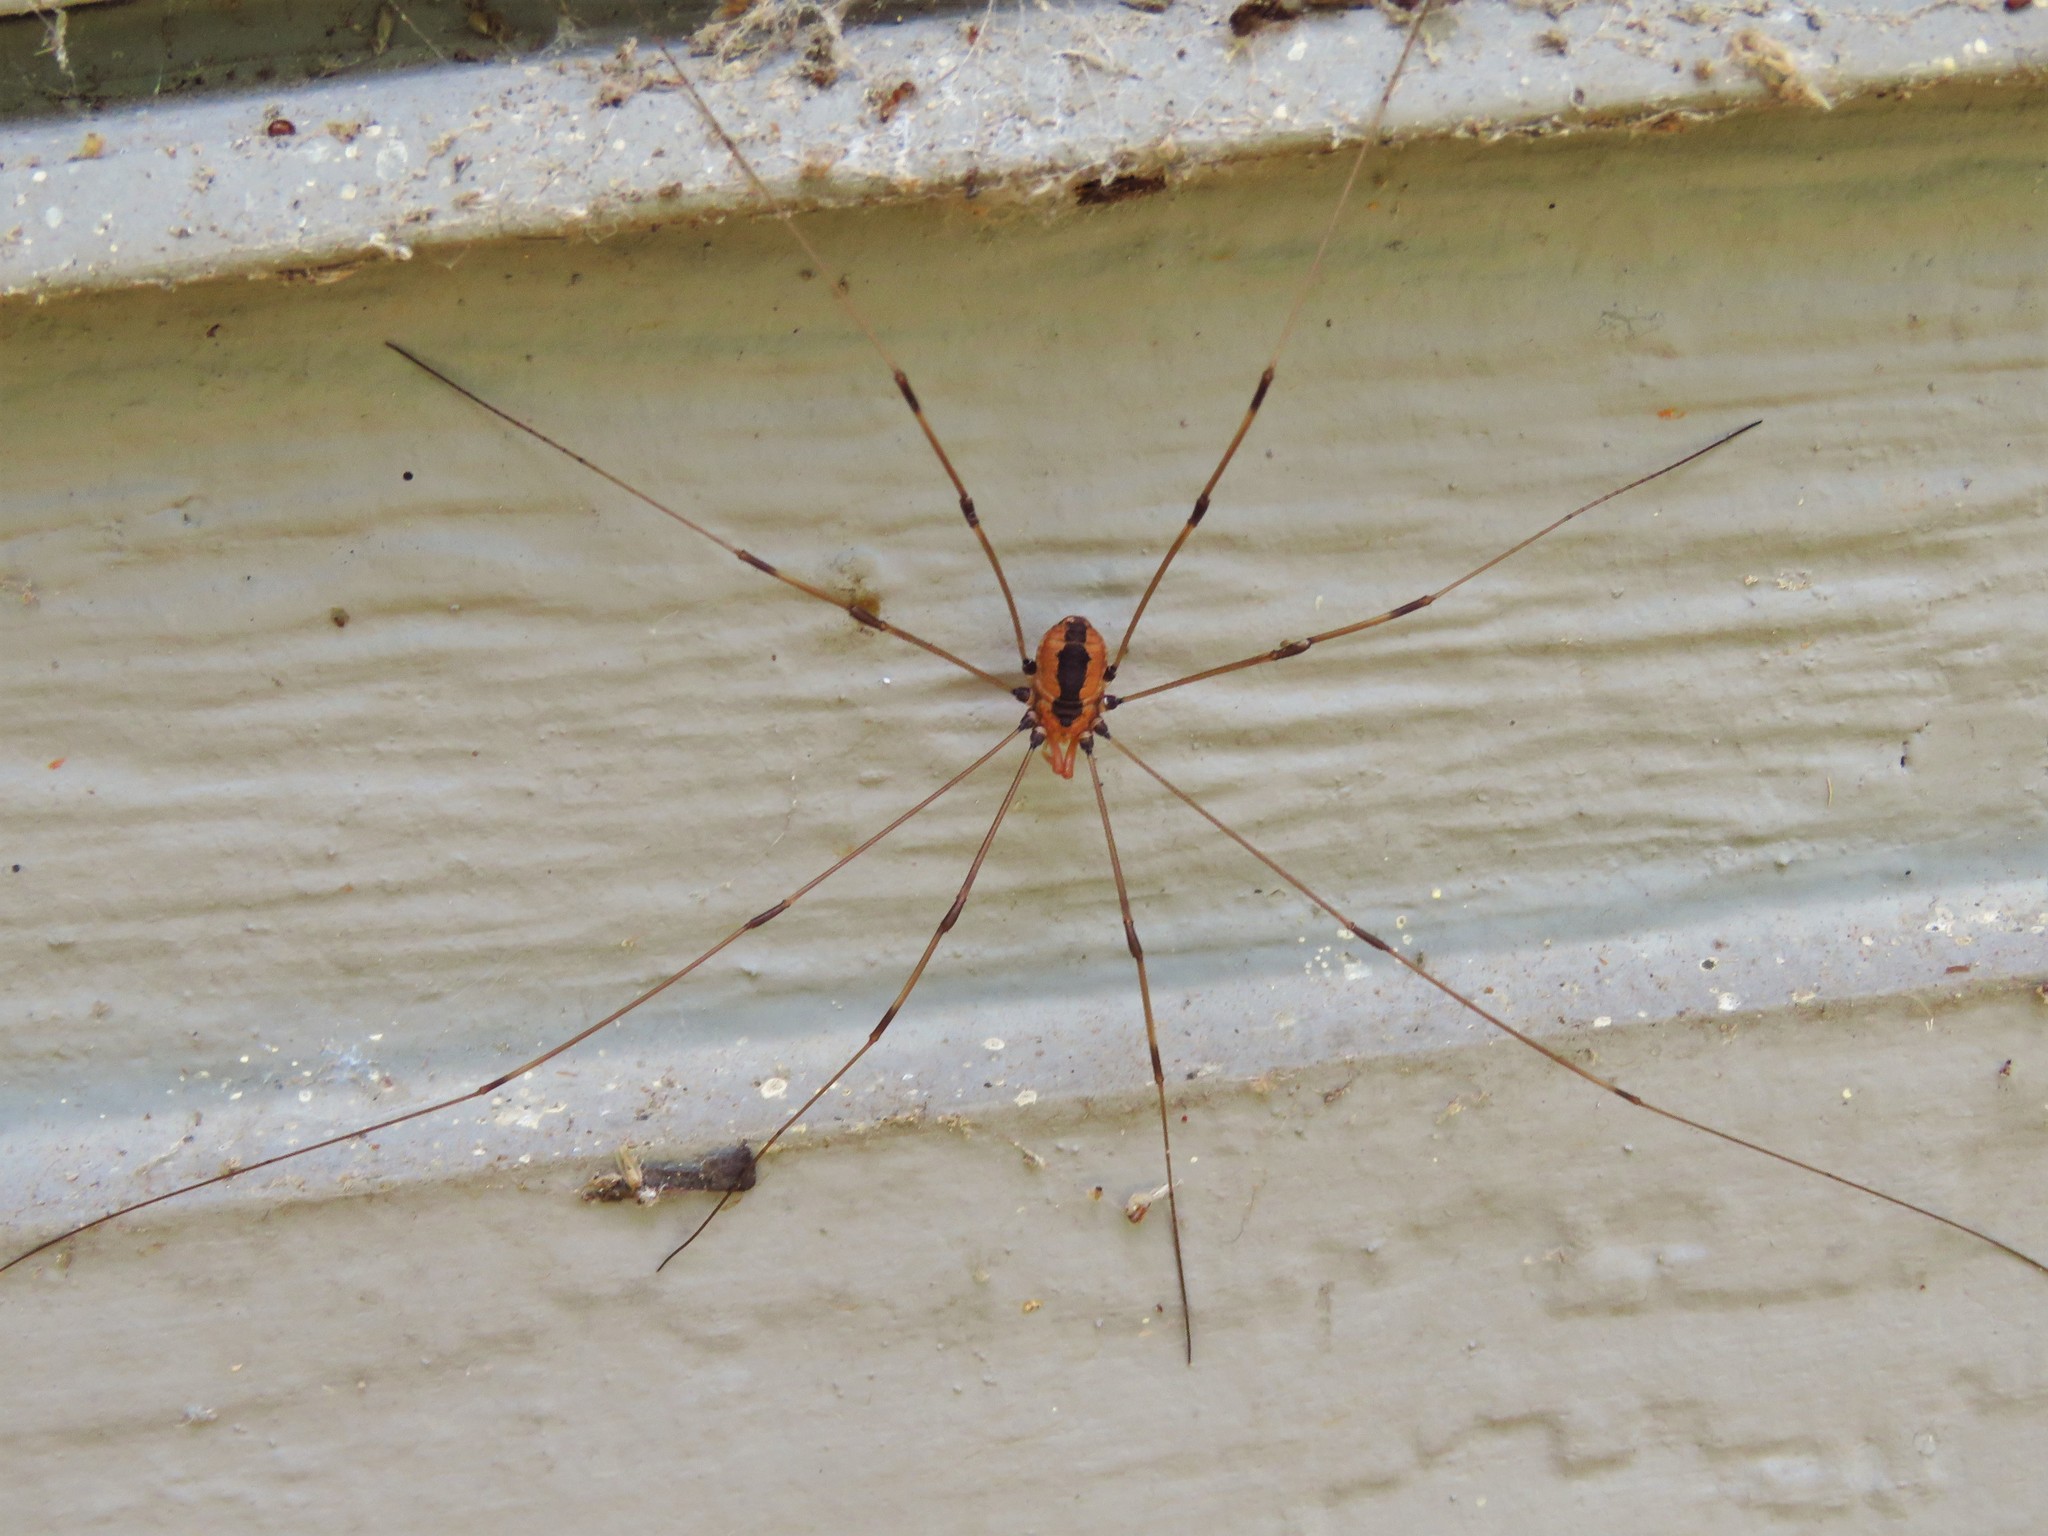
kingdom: Animalia
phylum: Arthropoda
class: Arachnida
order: Opiliones
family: Sclerosomatidae
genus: Leiobunum
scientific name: Leiobunum vittatum
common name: Eastern harvestman
